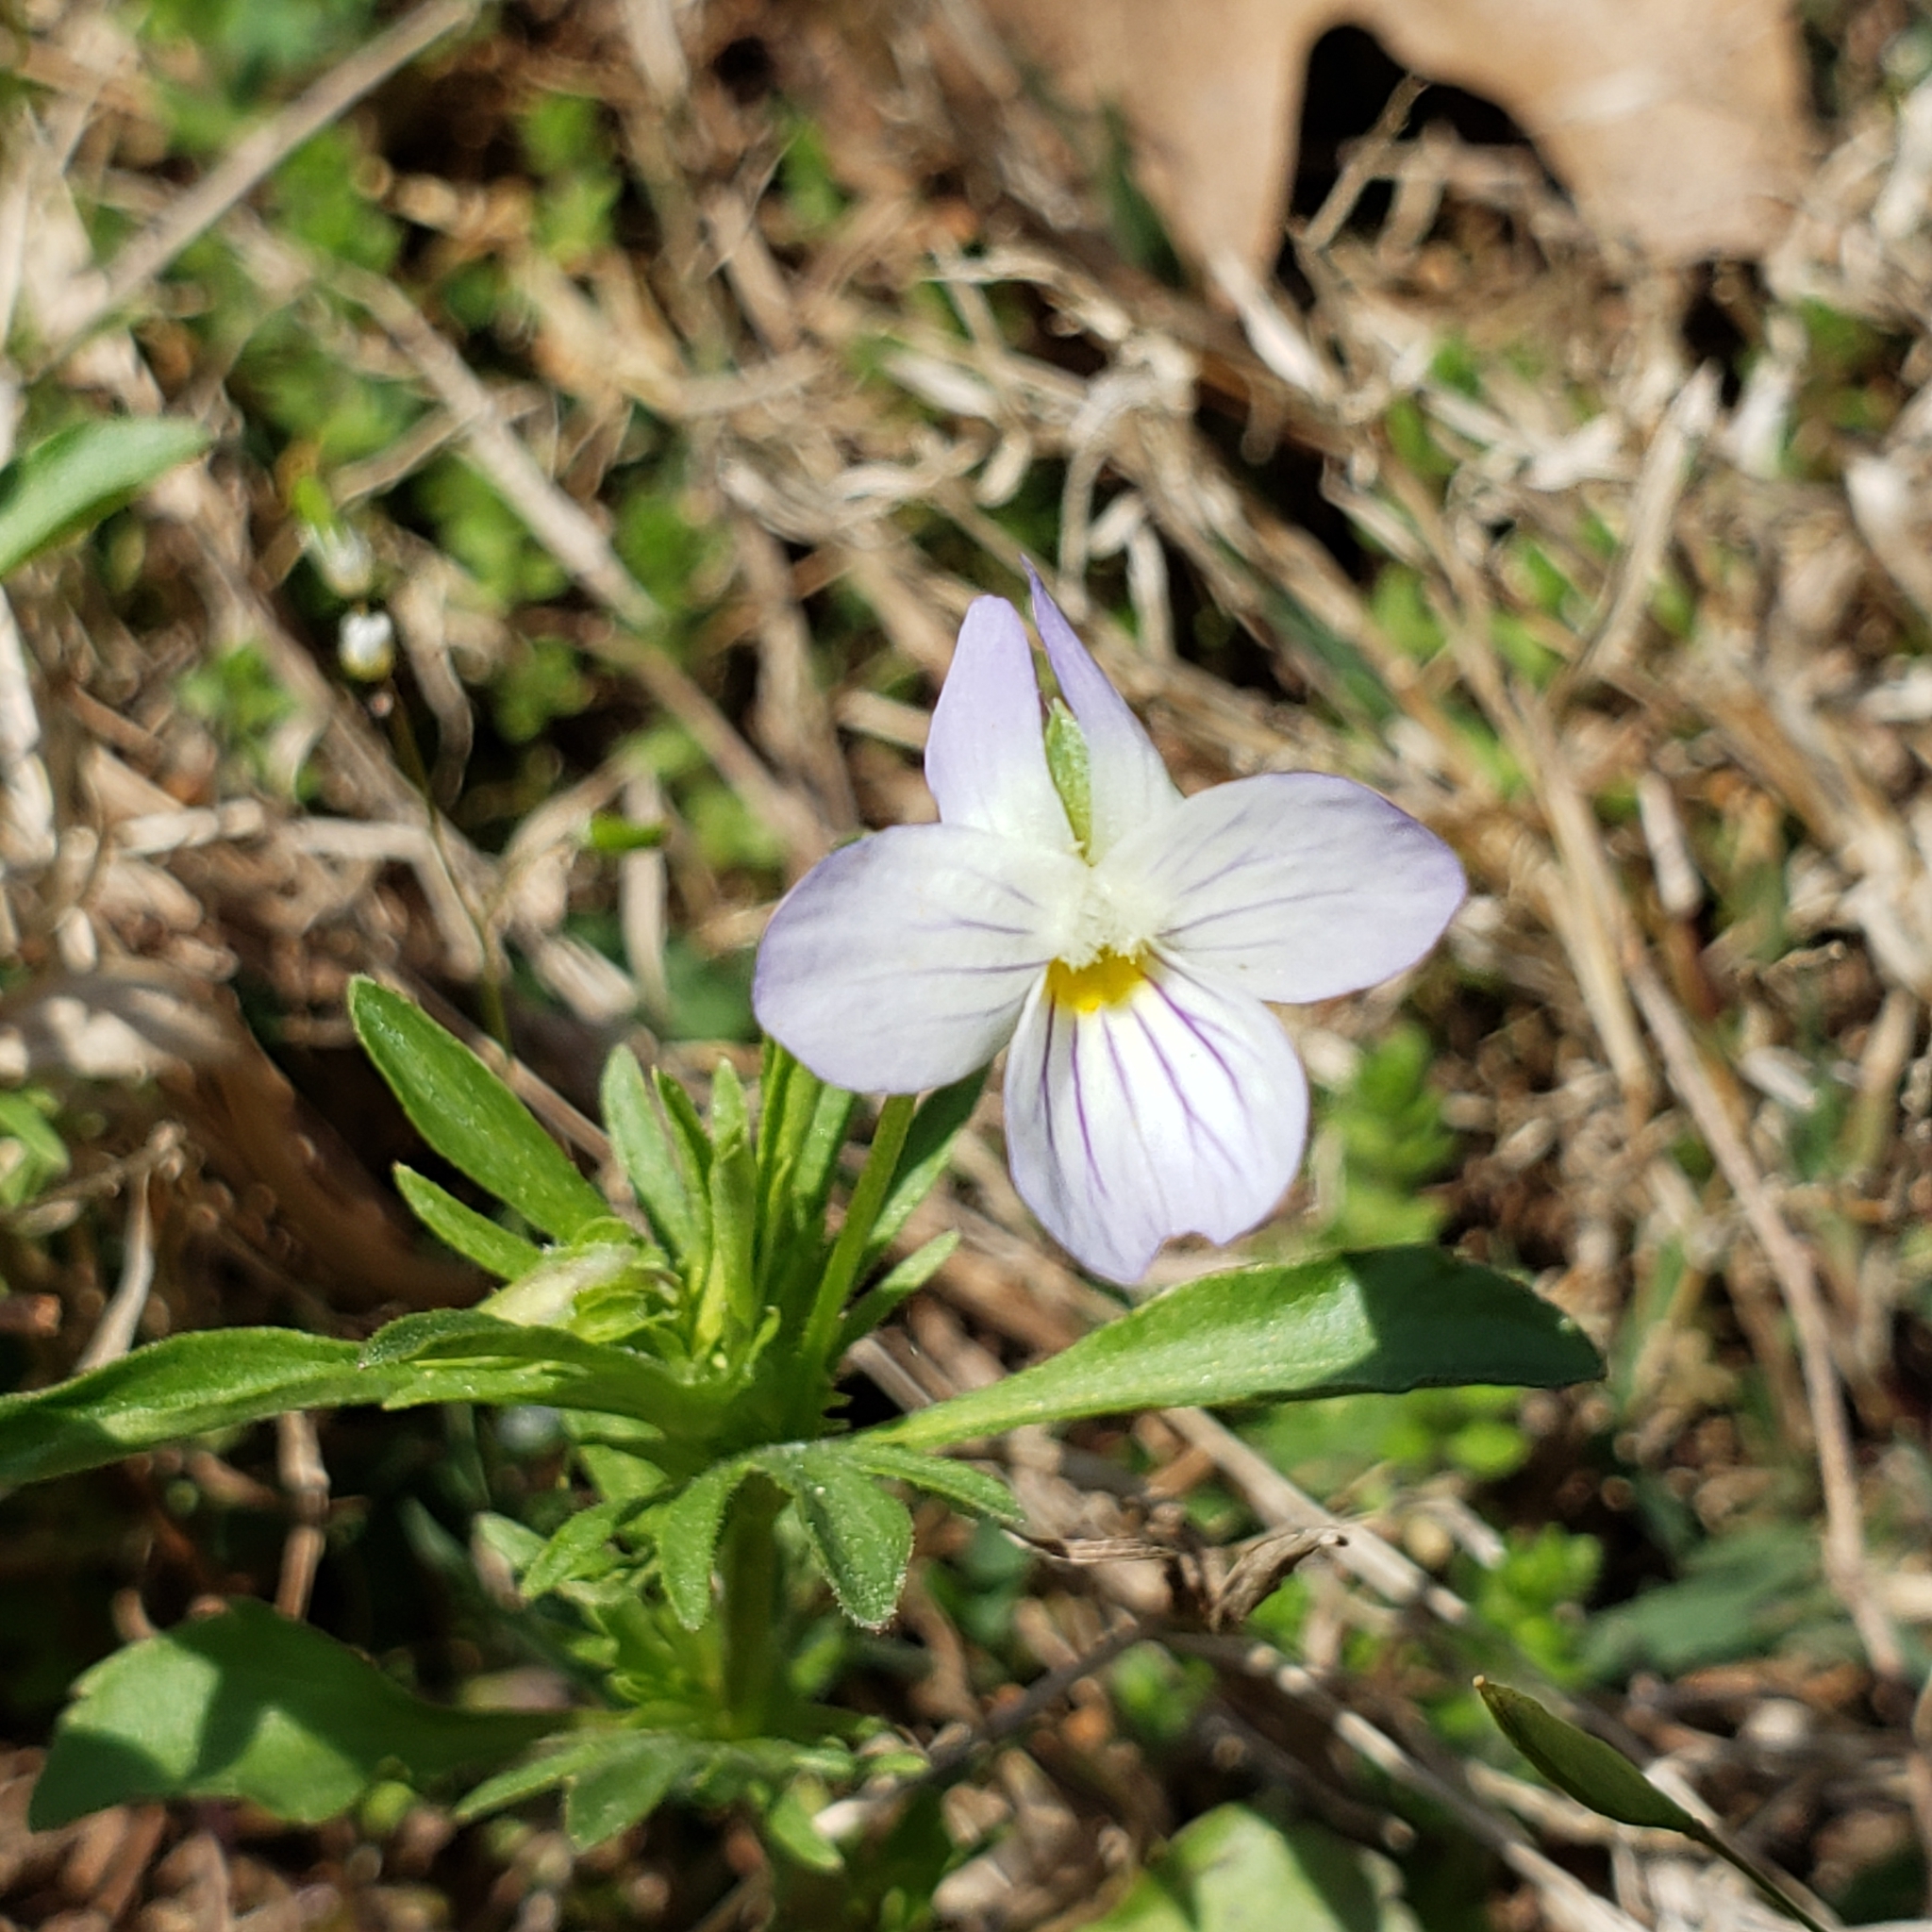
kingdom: Plantae
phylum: Tracheophyta
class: Magnoliopsida
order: Malpighiales
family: Violaceae
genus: Viola
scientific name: Viola rafinesquei
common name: American field pansy
